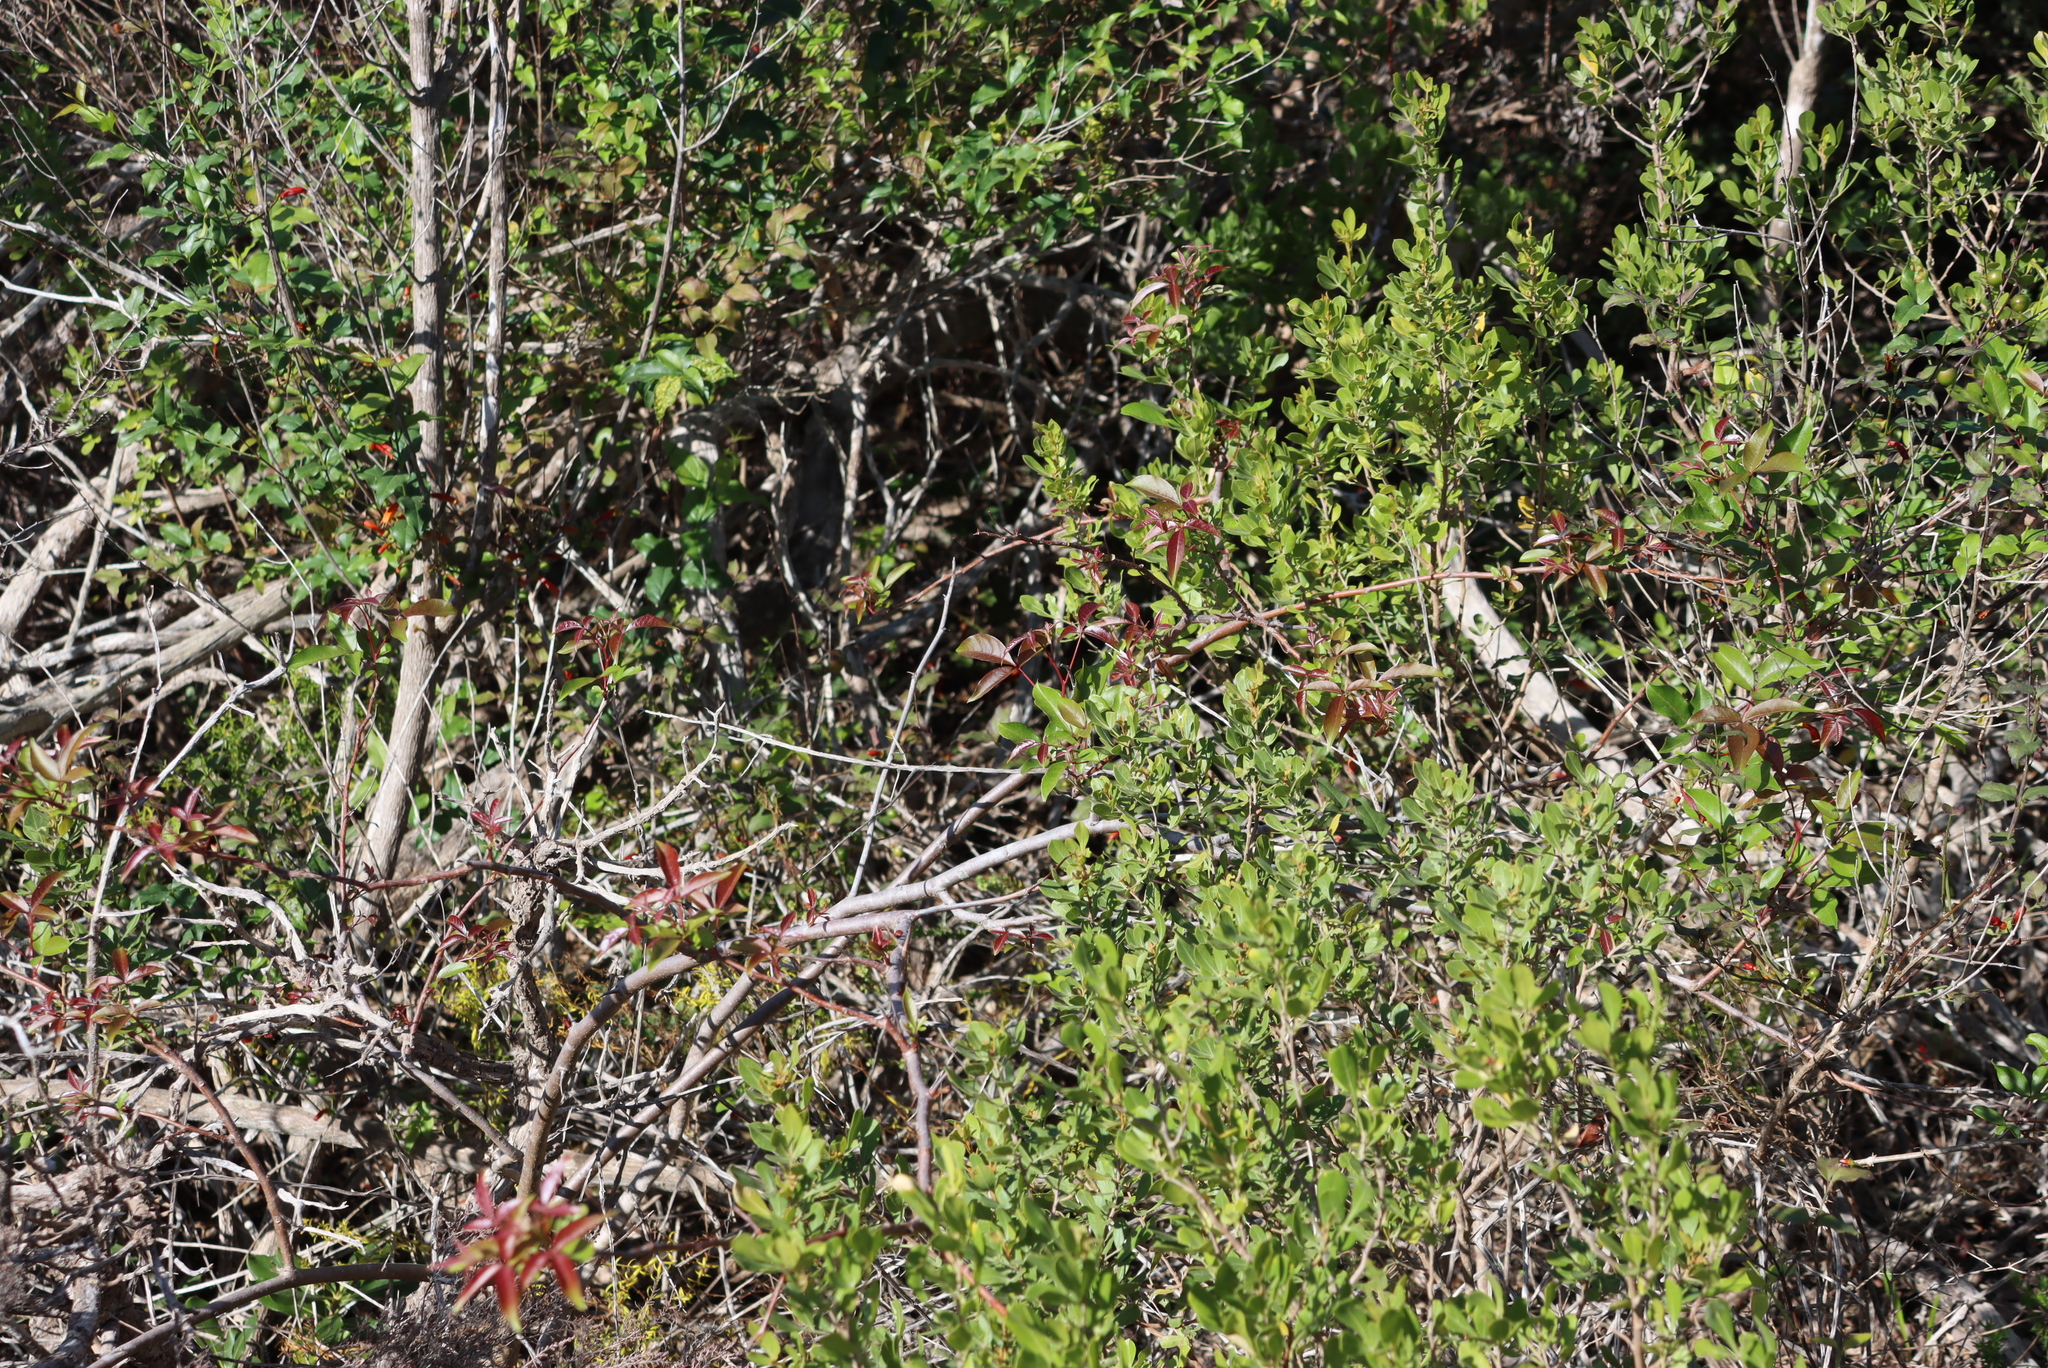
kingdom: Plantae
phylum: Tracheophyta
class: Magnoliopsida
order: Sapindales
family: Anacardiaceae
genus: Searsia
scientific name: Searsia chirindensis
